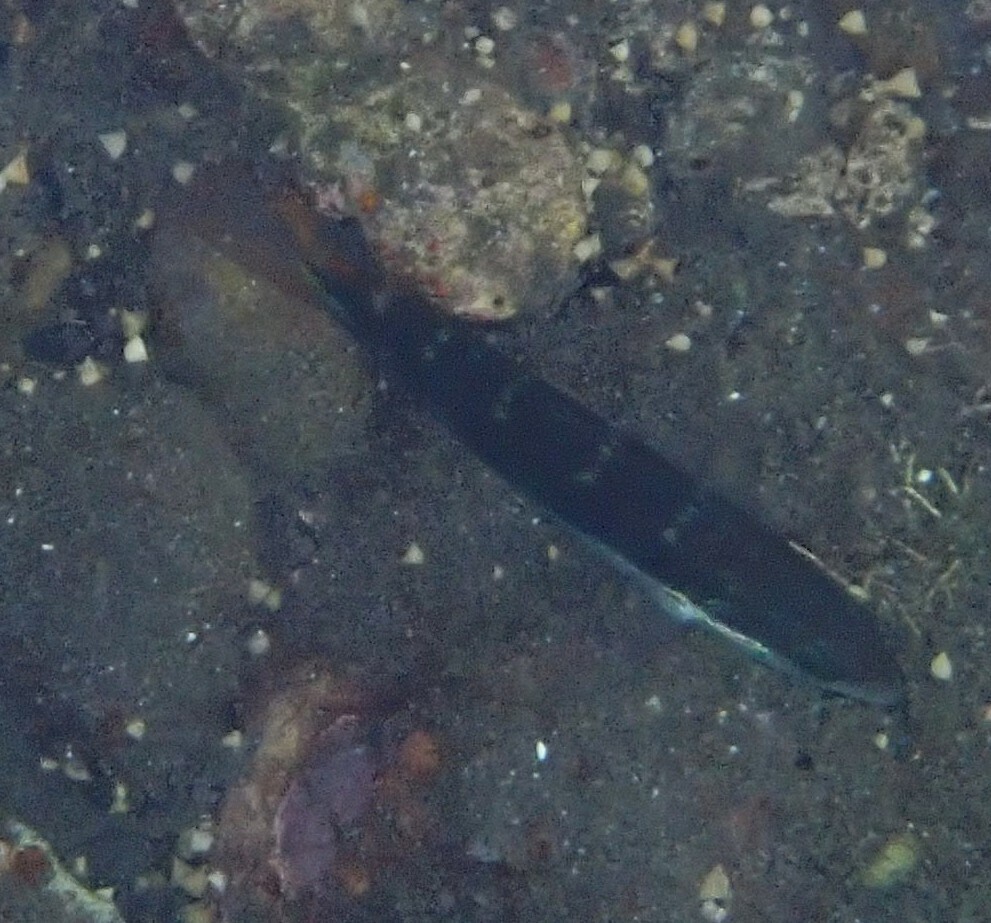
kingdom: Animalia
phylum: Chordata
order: Perciformes
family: Labridae
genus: Thalassoma
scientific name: Thalassoma jansenii
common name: Jansen's wrasse
